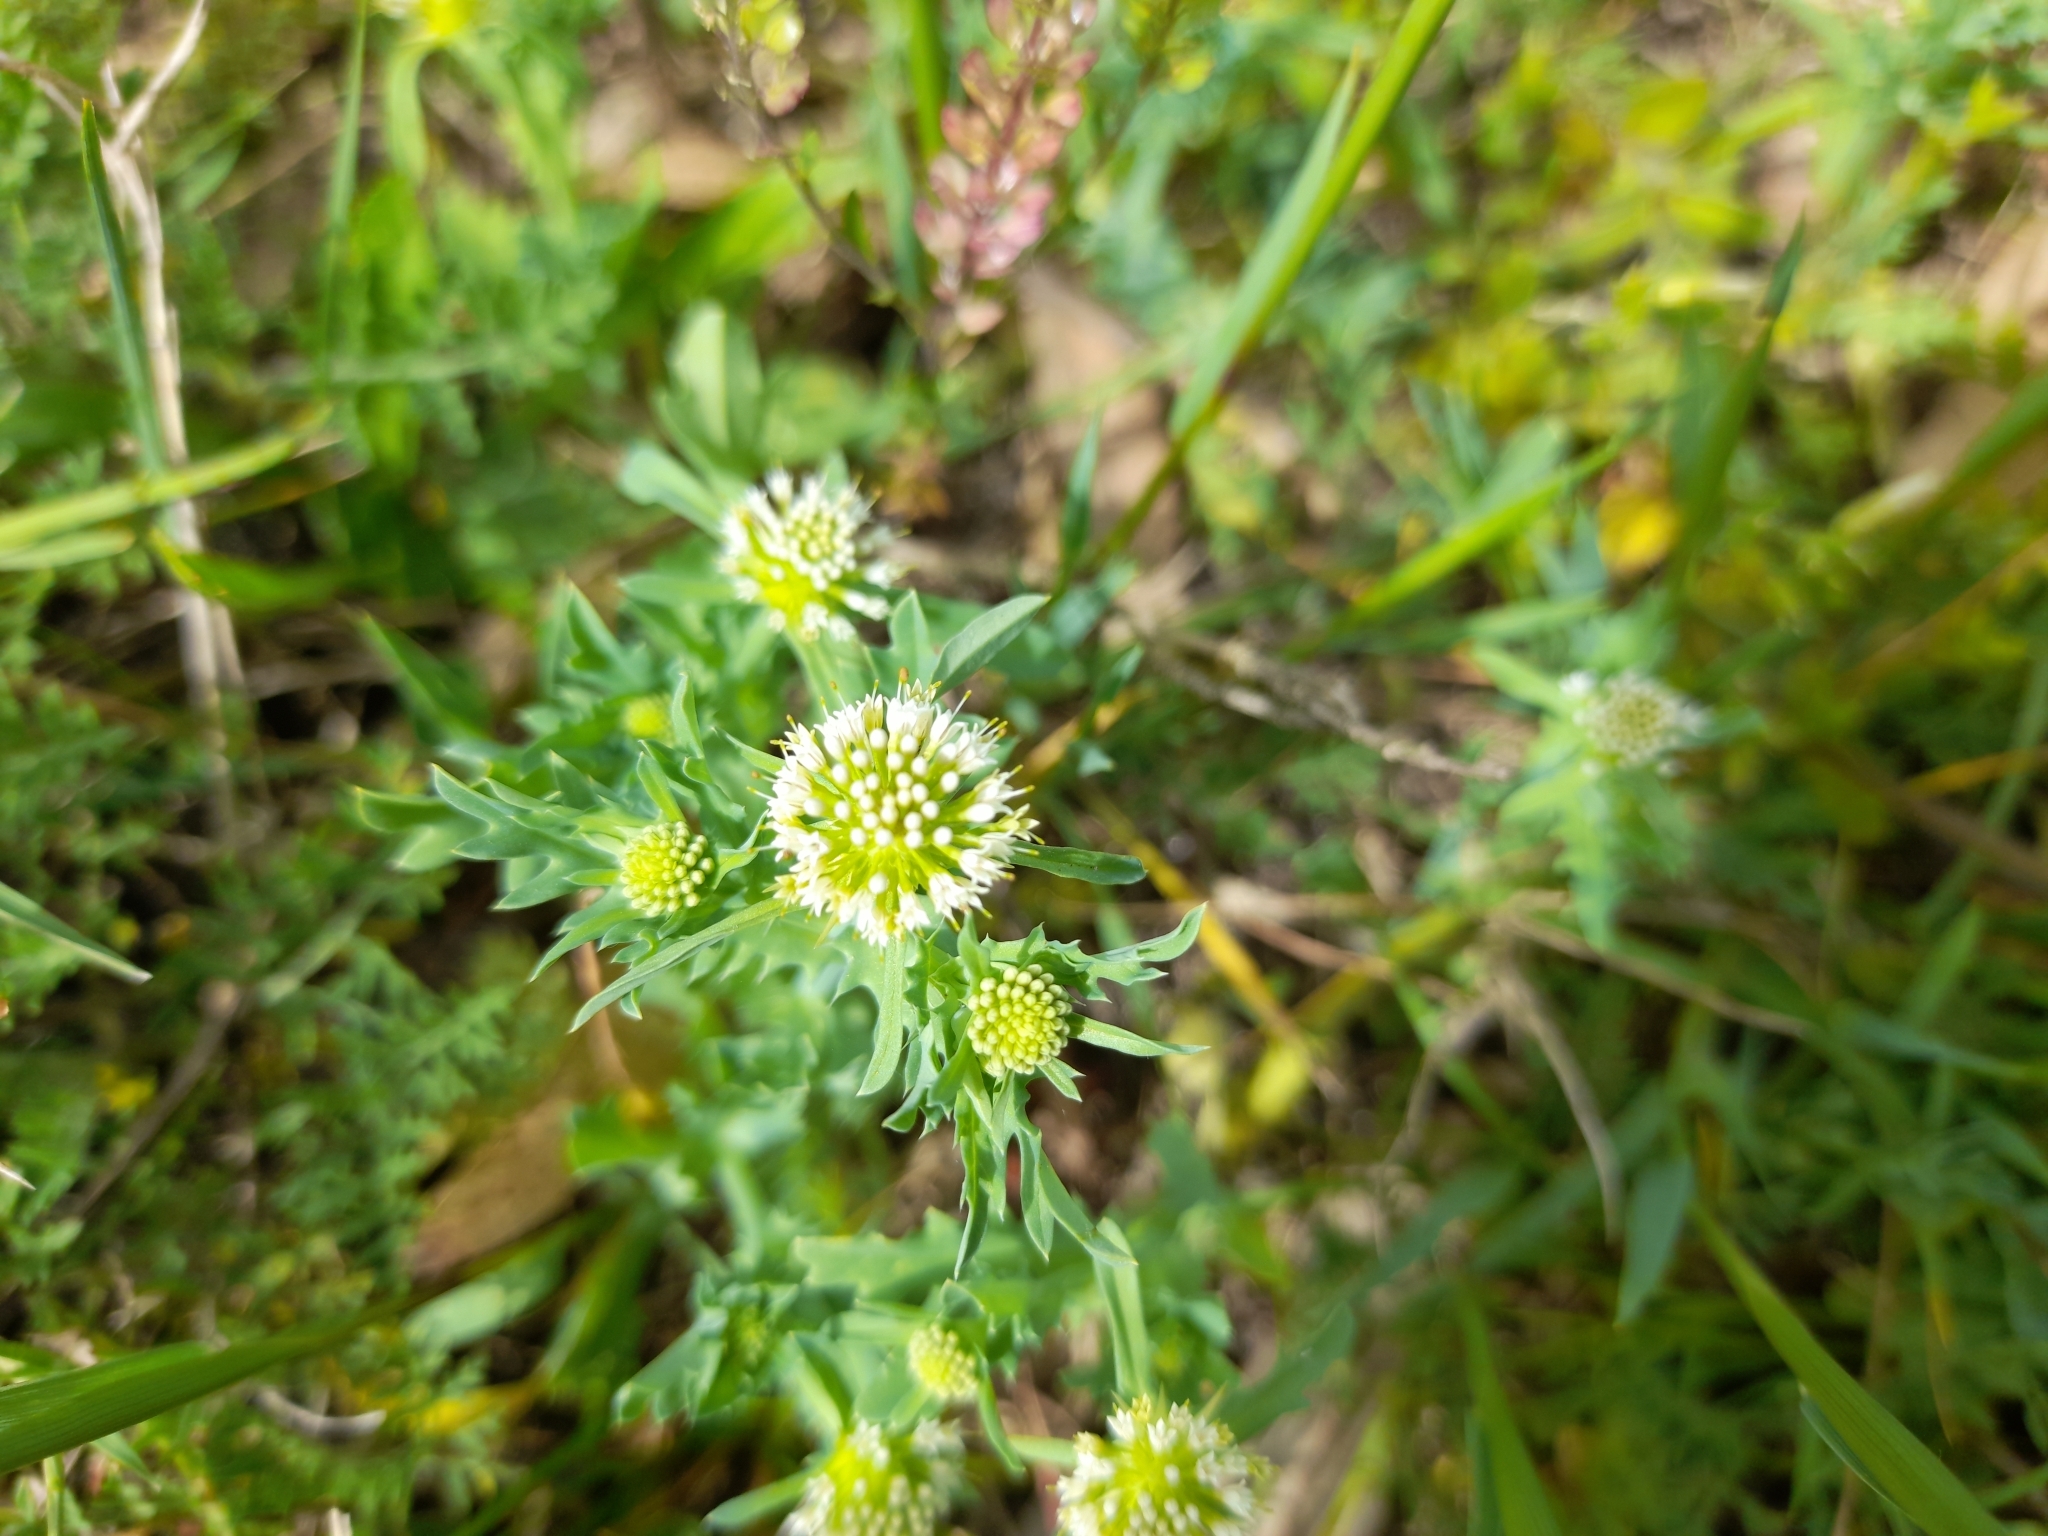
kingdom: Plantae
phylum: Tracheophyta
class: Magnoliopsida
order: Asterales
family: Calyceraceae
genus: Acicarpha
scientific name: Acicarpha tribuloides
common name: Madam gorgon
